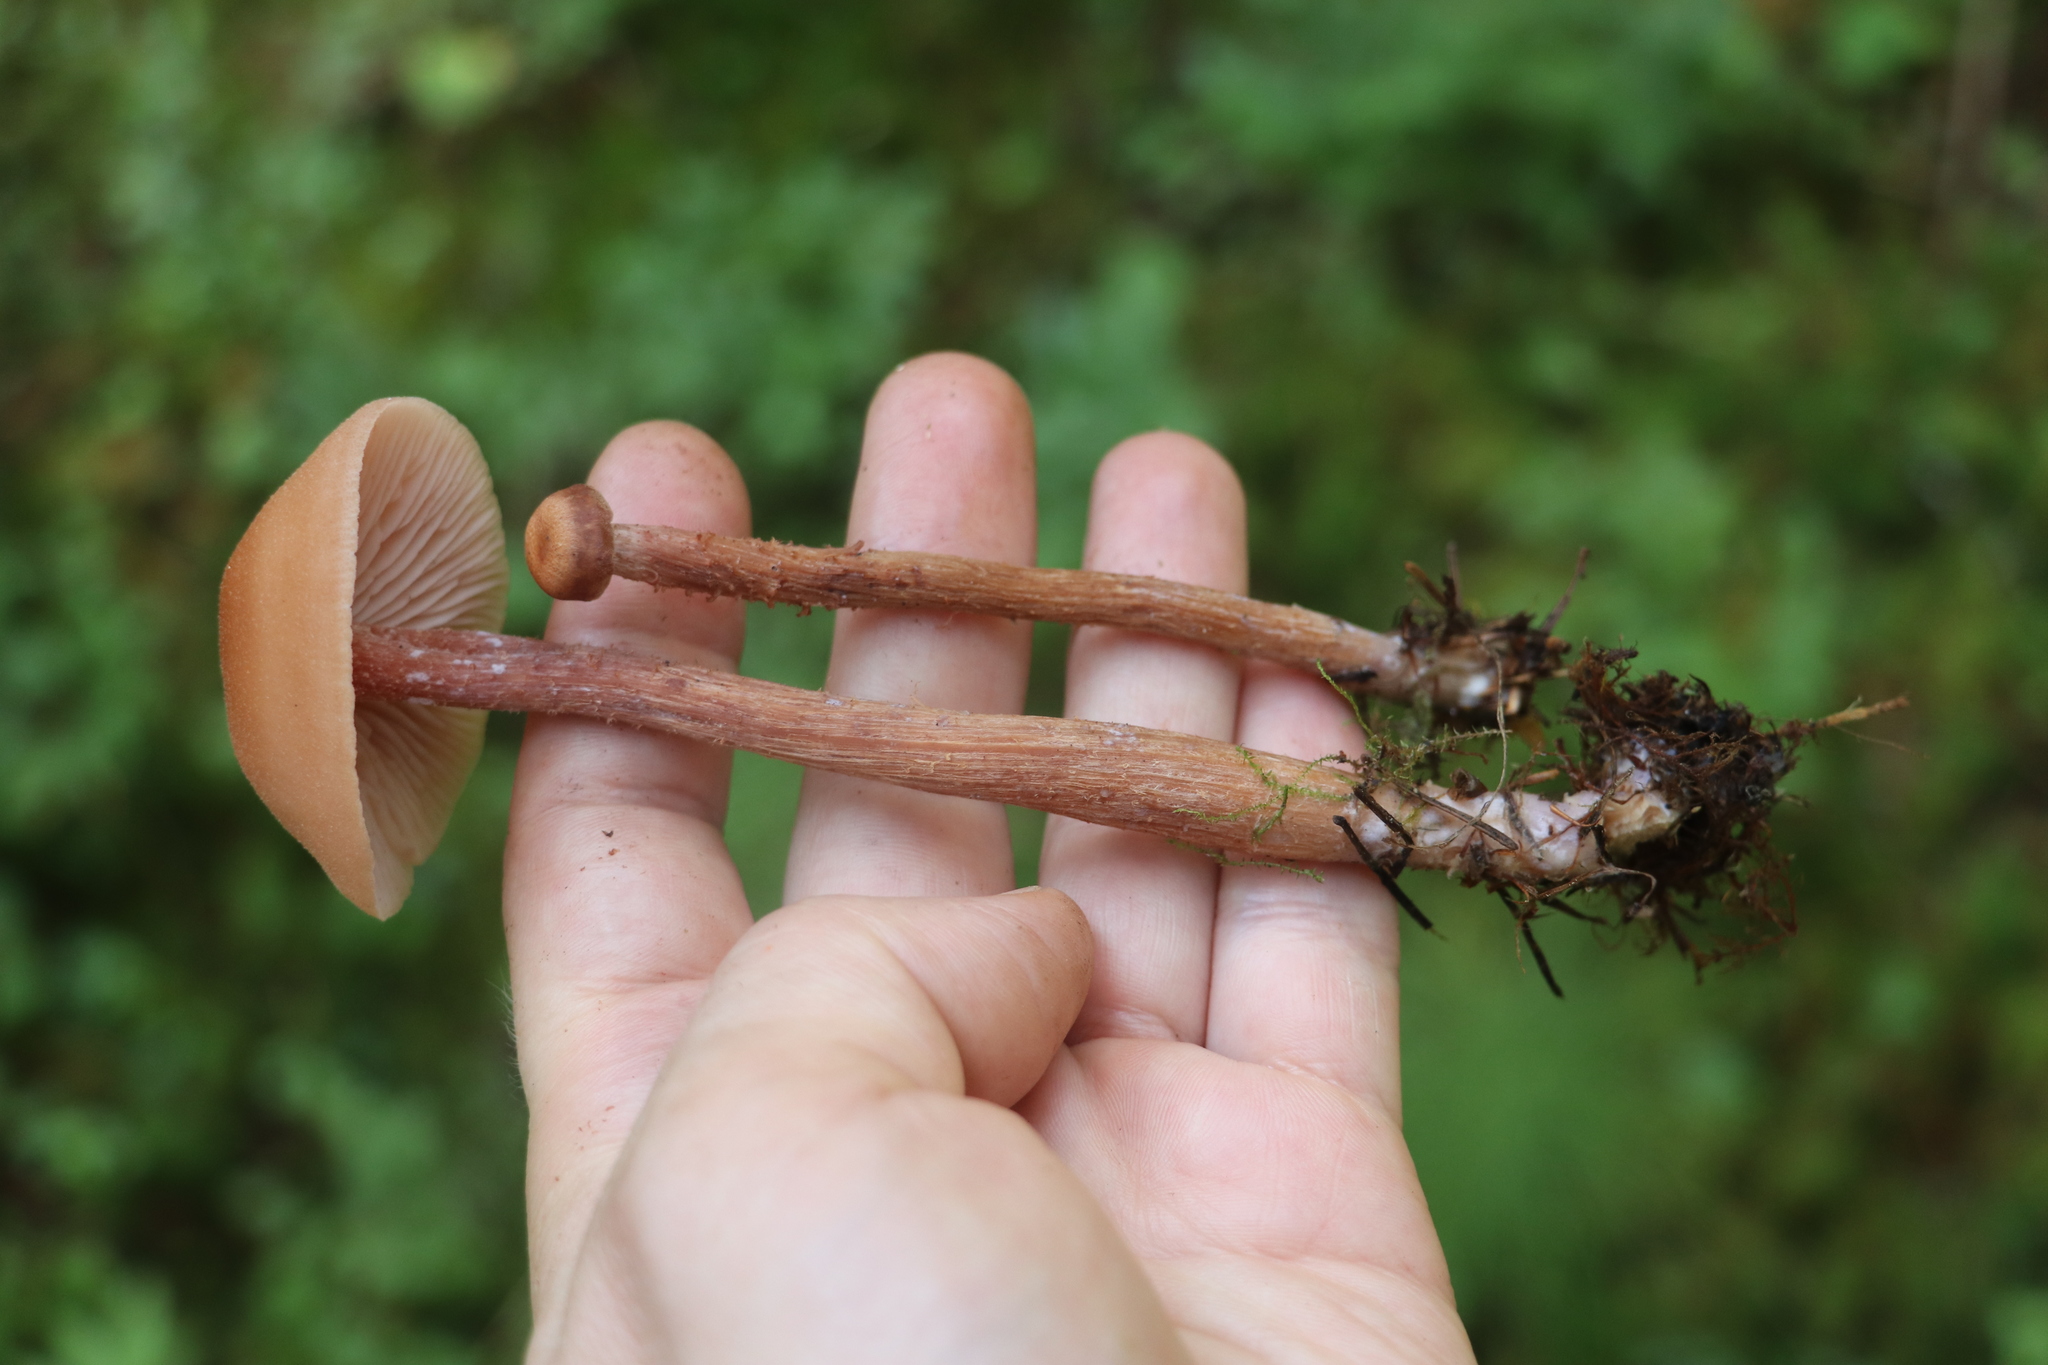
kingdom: Fungi
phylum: Basidiomycota
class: Agaricomycetes
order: Agaricales
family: Hydnangiaceae
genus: Laccaria
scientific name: Laccaria proxima
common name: Scurfy deceiver
